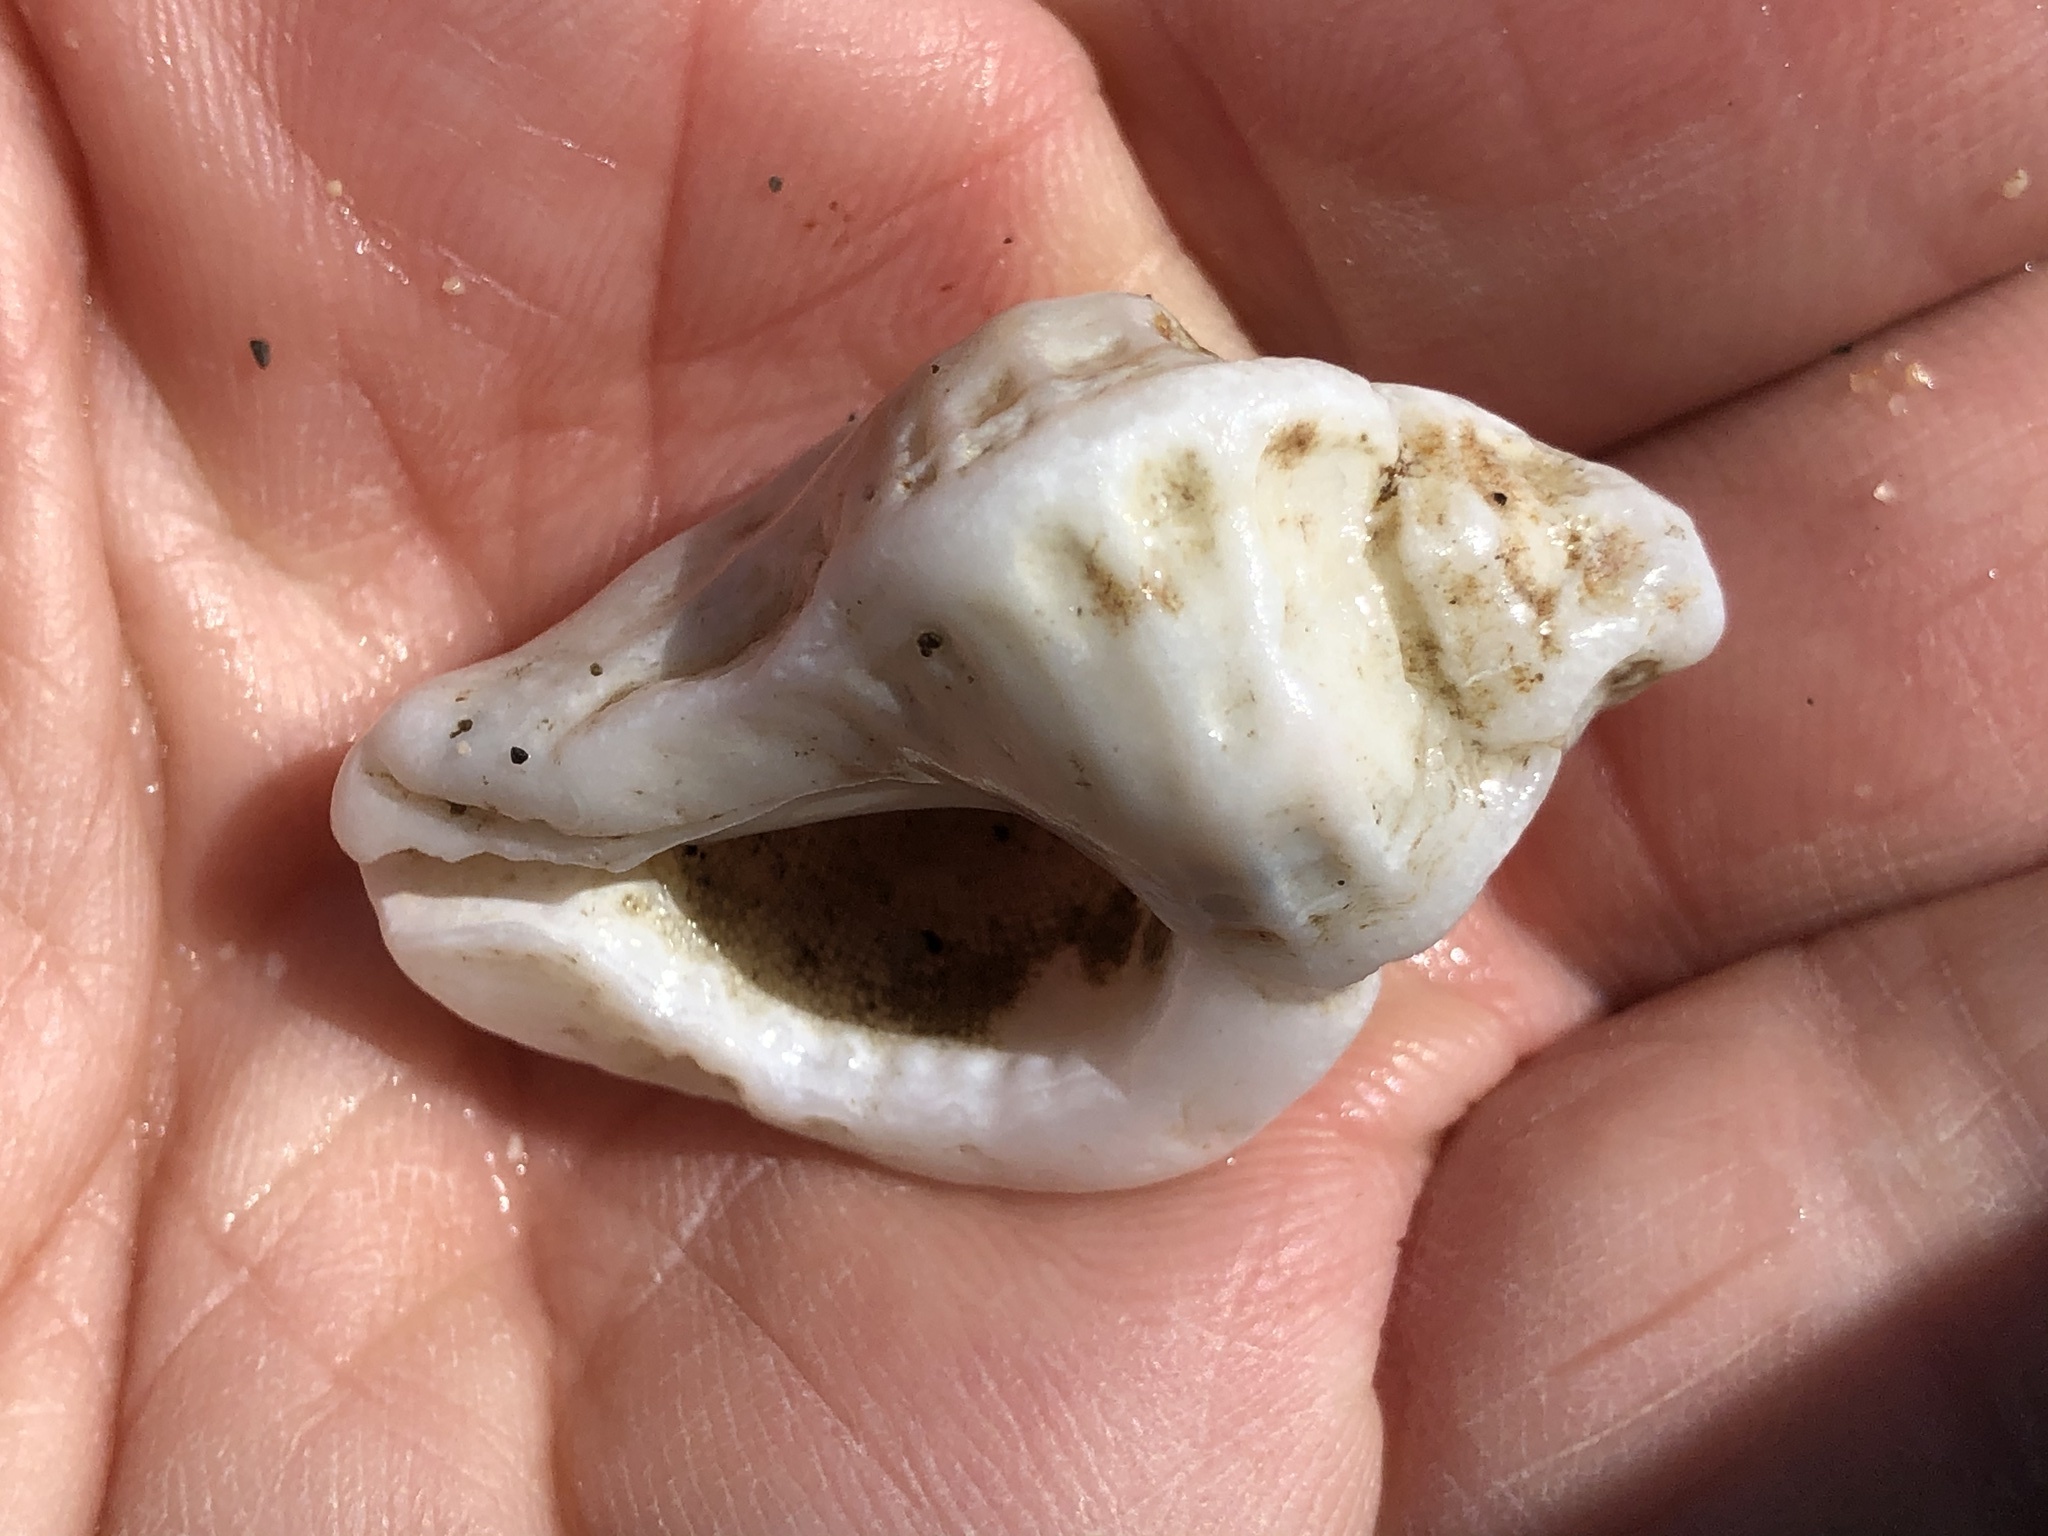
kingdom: Animalia
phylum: Mollusca
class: Gastropoda
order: Neogastropoda
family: Muricidae
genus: Ceratostoma
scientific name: Ceratostoma foliatum
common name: Foliate thorn purpura
